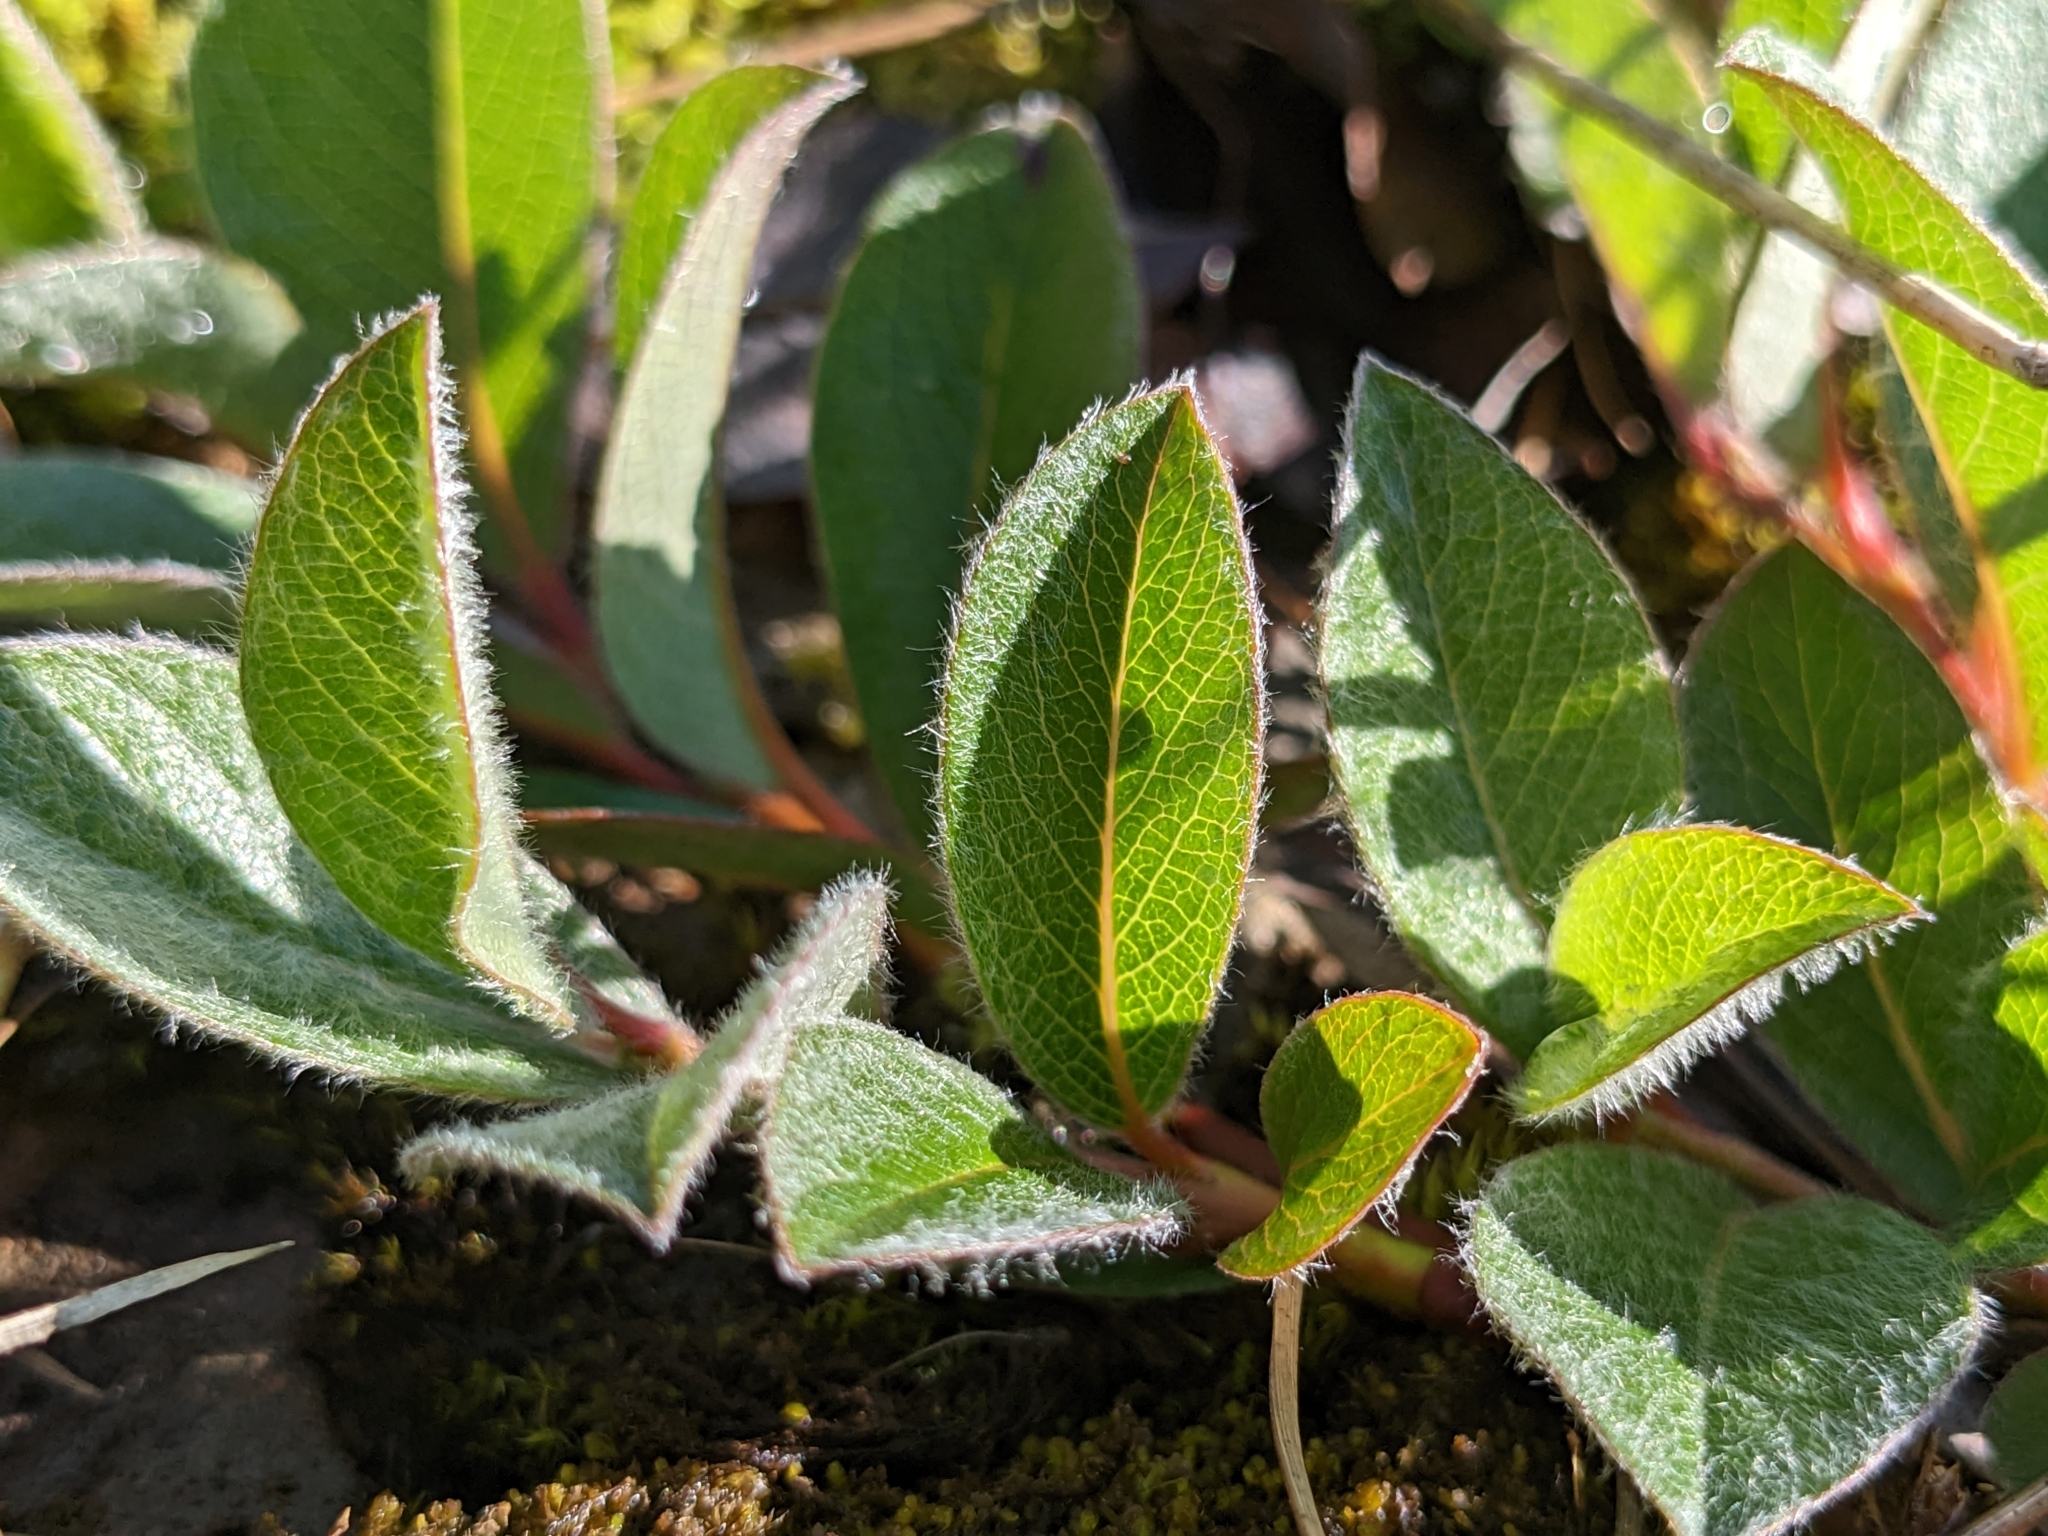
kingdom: Plantae
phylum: Tracheophyta
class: Magnoliopsida
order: Malpighiales
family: Salicaceae
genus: Salix
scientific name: Salix arctica
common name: Arctic willow
